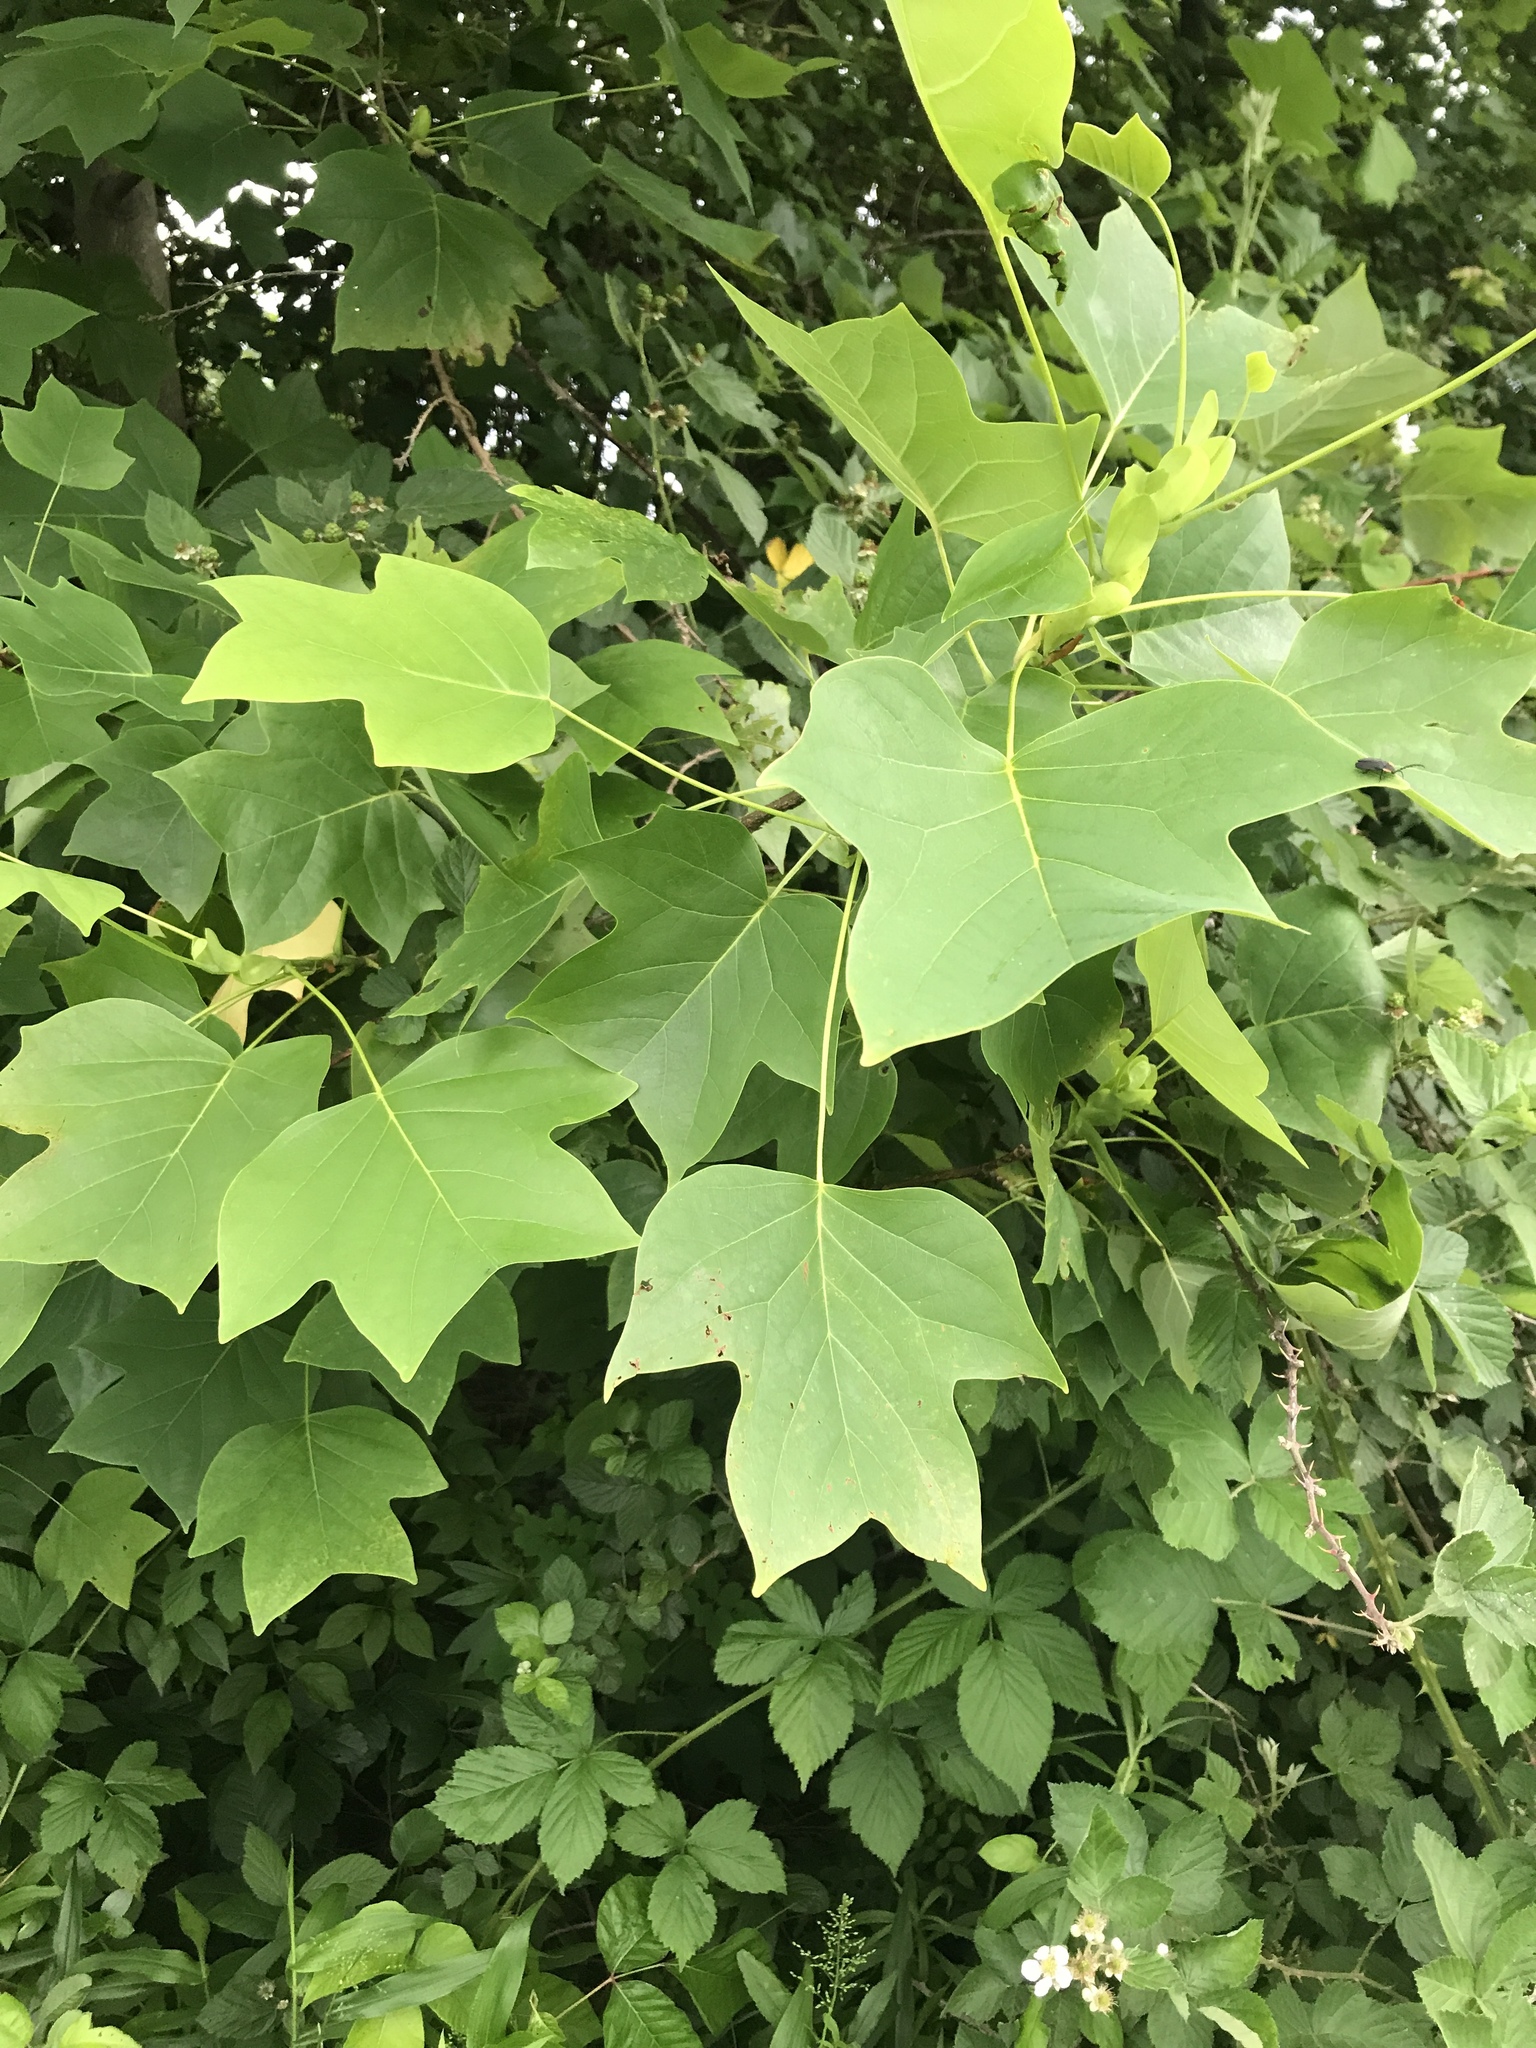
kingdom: Plantae
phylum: Tracheophyta
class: Magnoliopsida
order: Magnoliales
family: Magnoliaceae
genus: Liriodendron
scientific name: Liriodendron tulipifera
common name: Tulip tree
